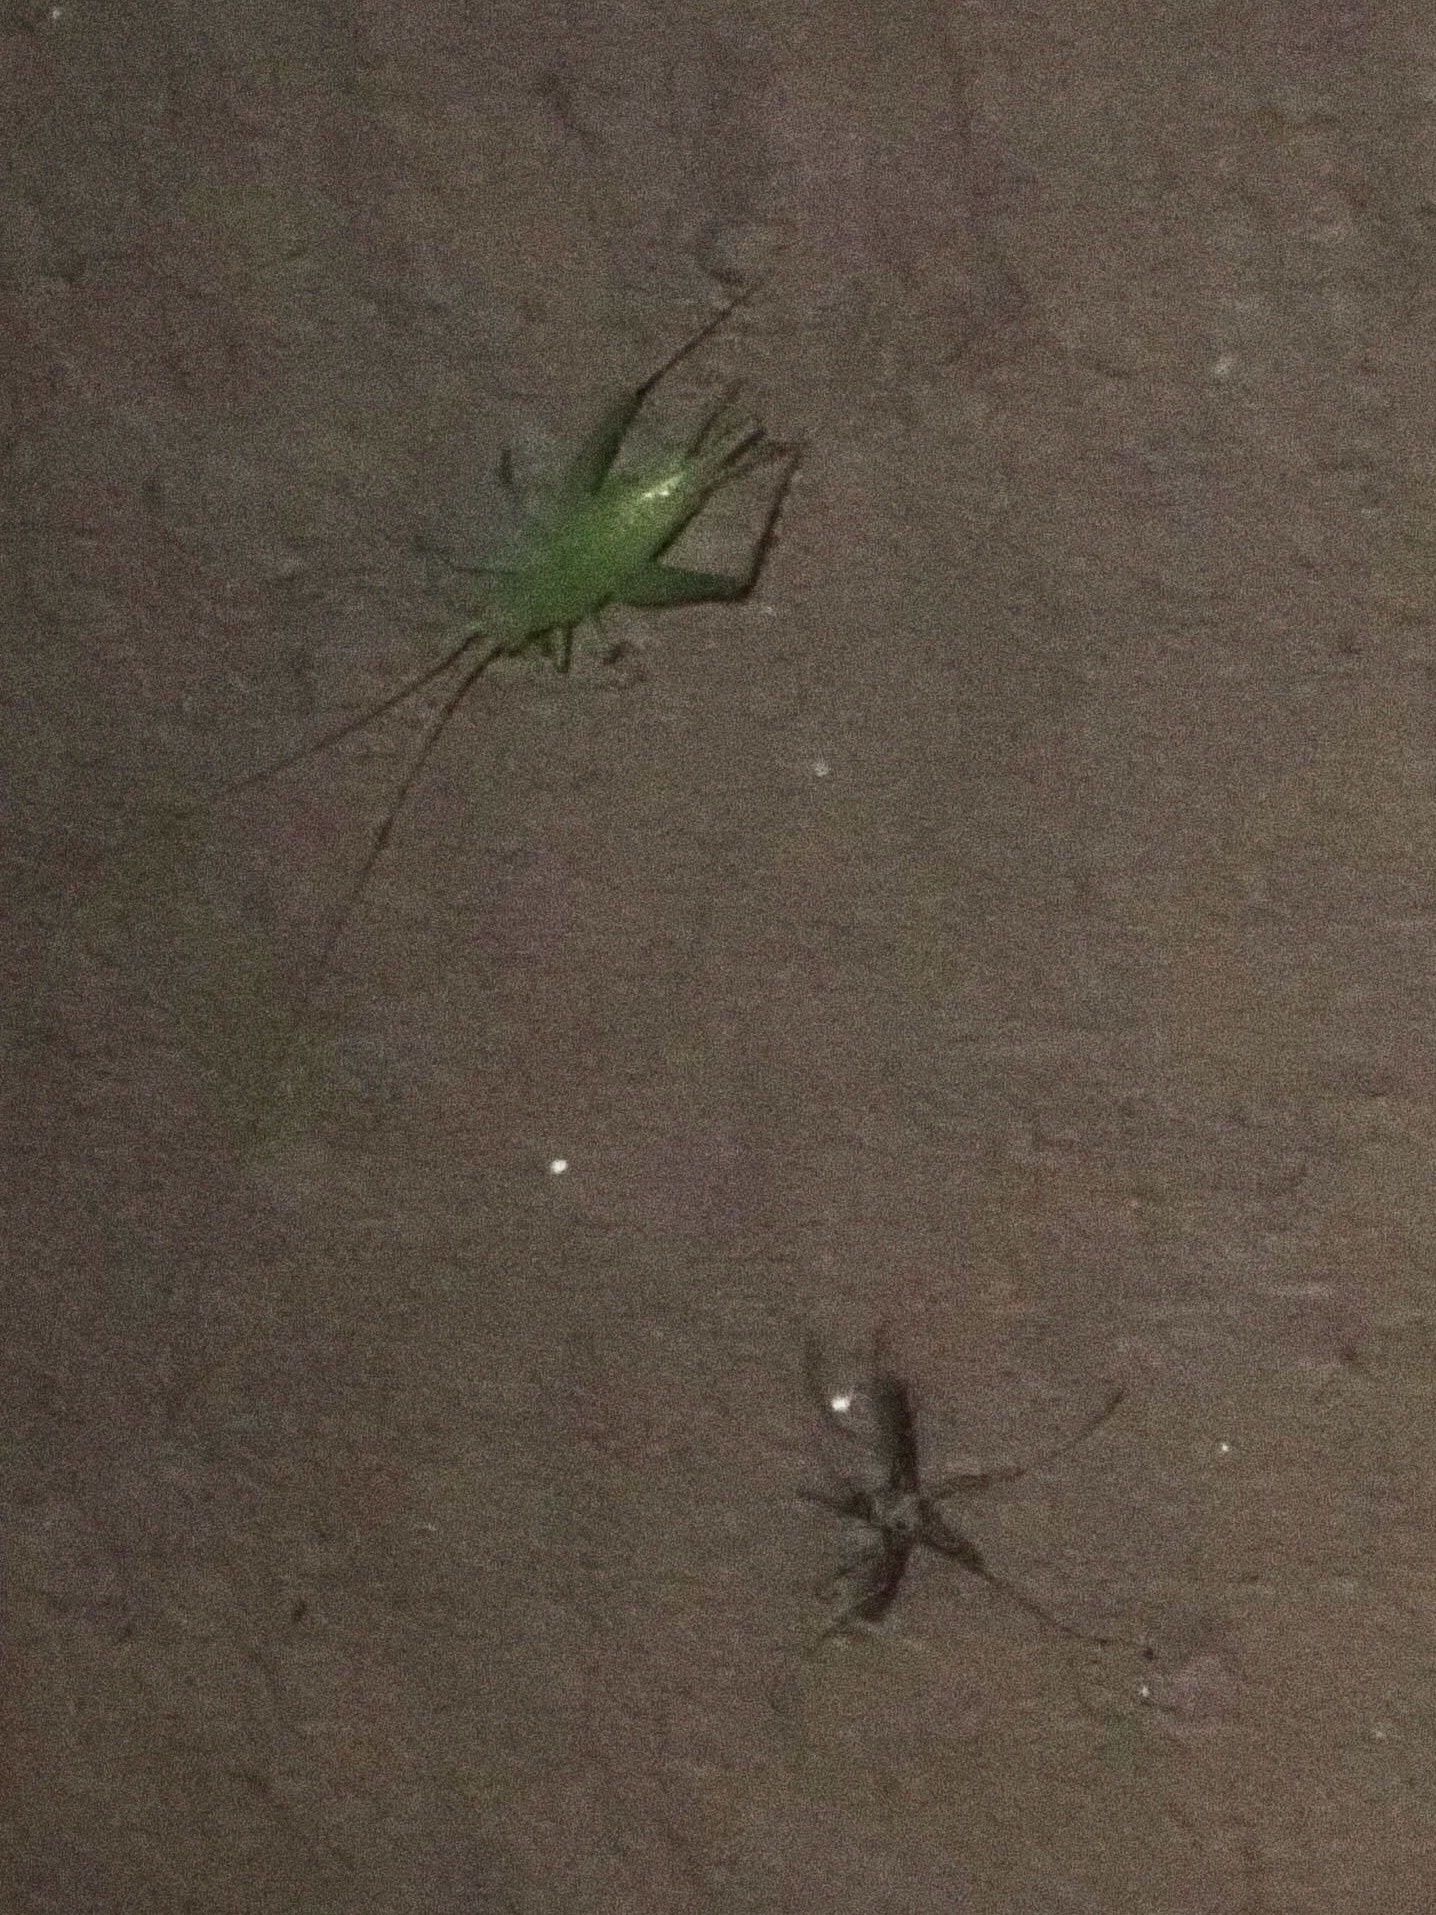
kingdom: Animalia
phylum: Arthropoda
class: Insecta
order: Orthoptera
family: Trigonidiidae
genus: Cyrtoxipha
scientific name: Cyrtoxipha columbiana
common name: Columbian trig
